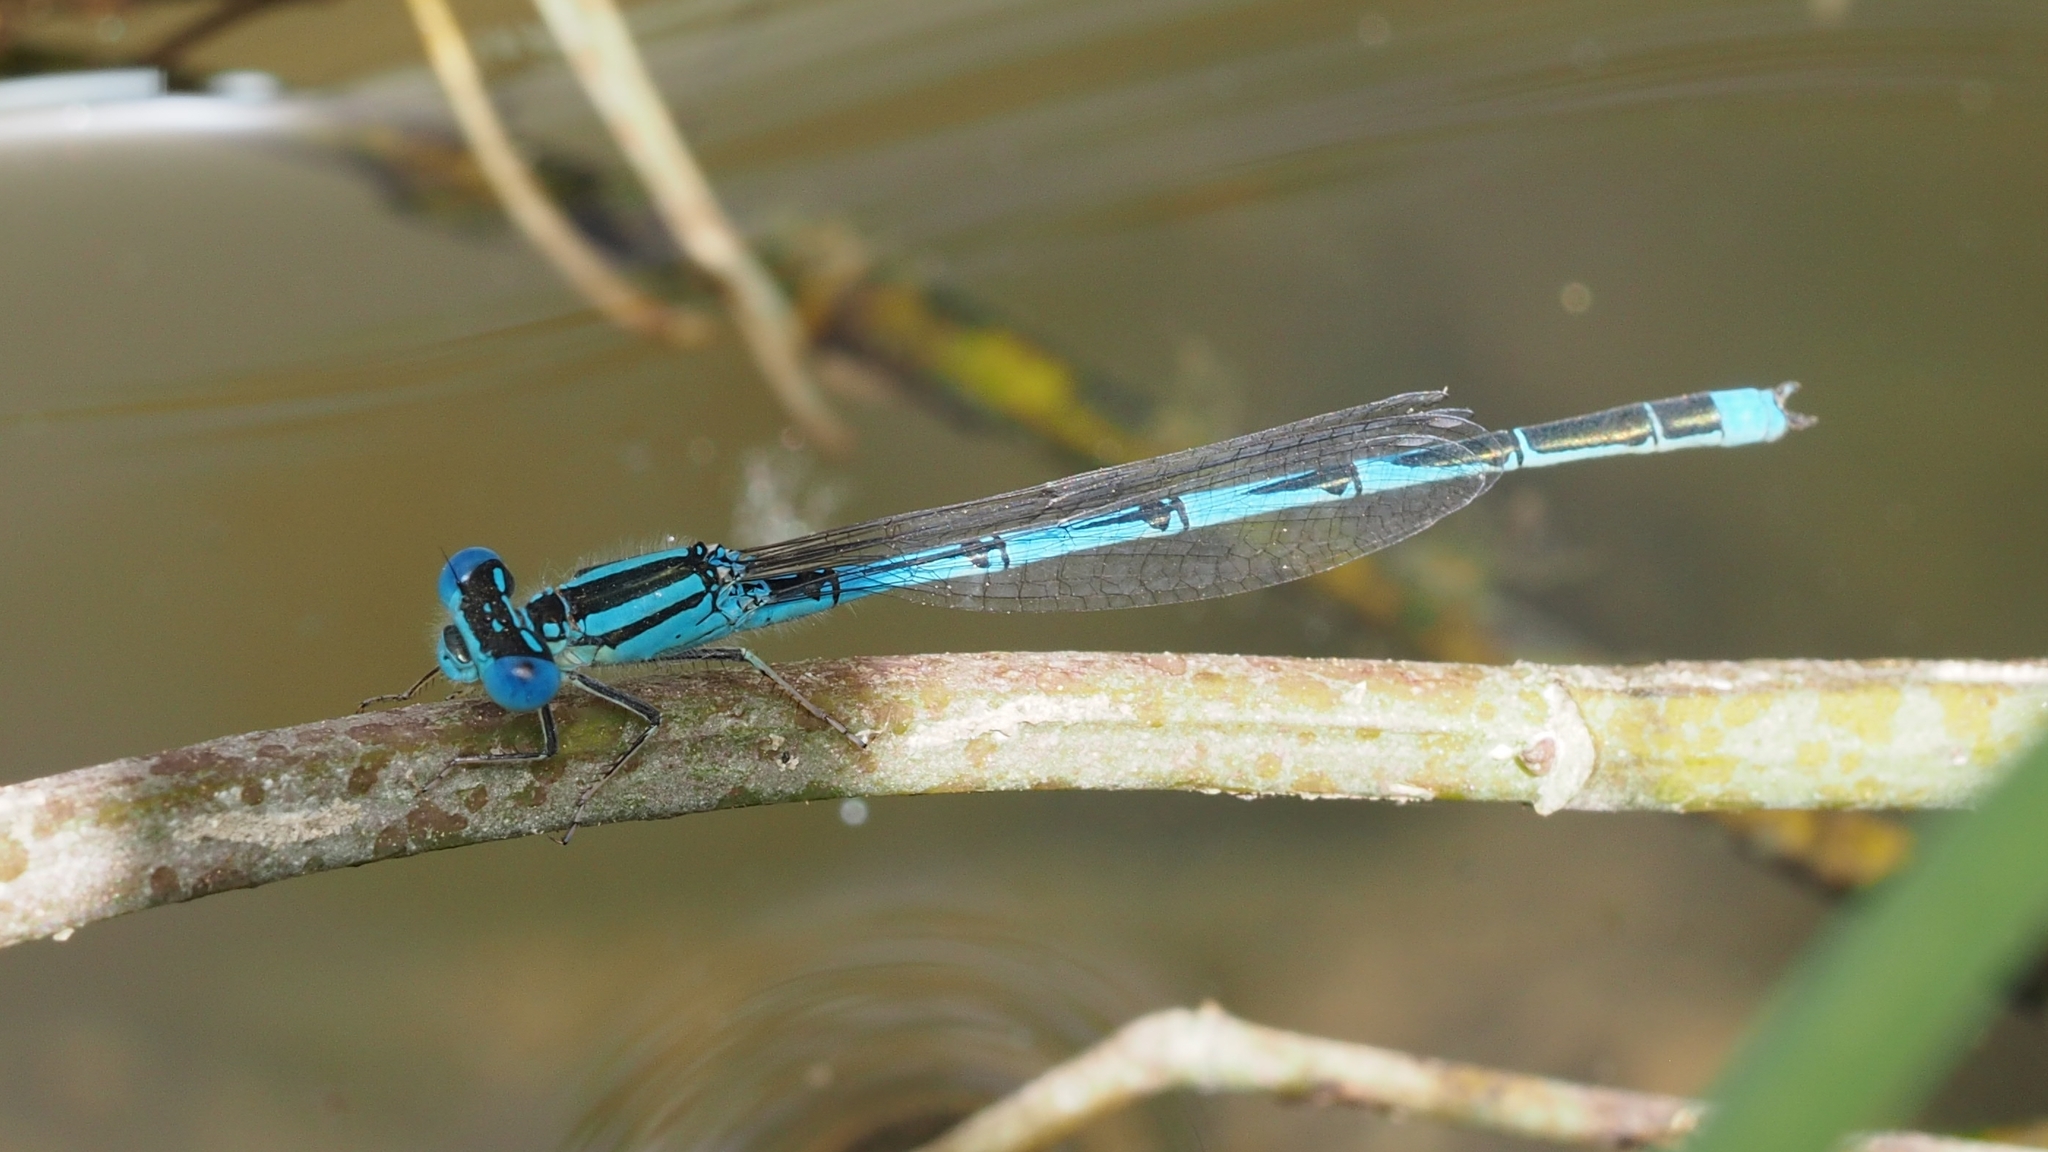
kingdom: Animalia
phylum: Arthropoda
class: Insecta
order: Odonata
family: Coenagrionidae
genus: Erythromma
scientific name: Erythromma lindenii
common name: Blue-eye
